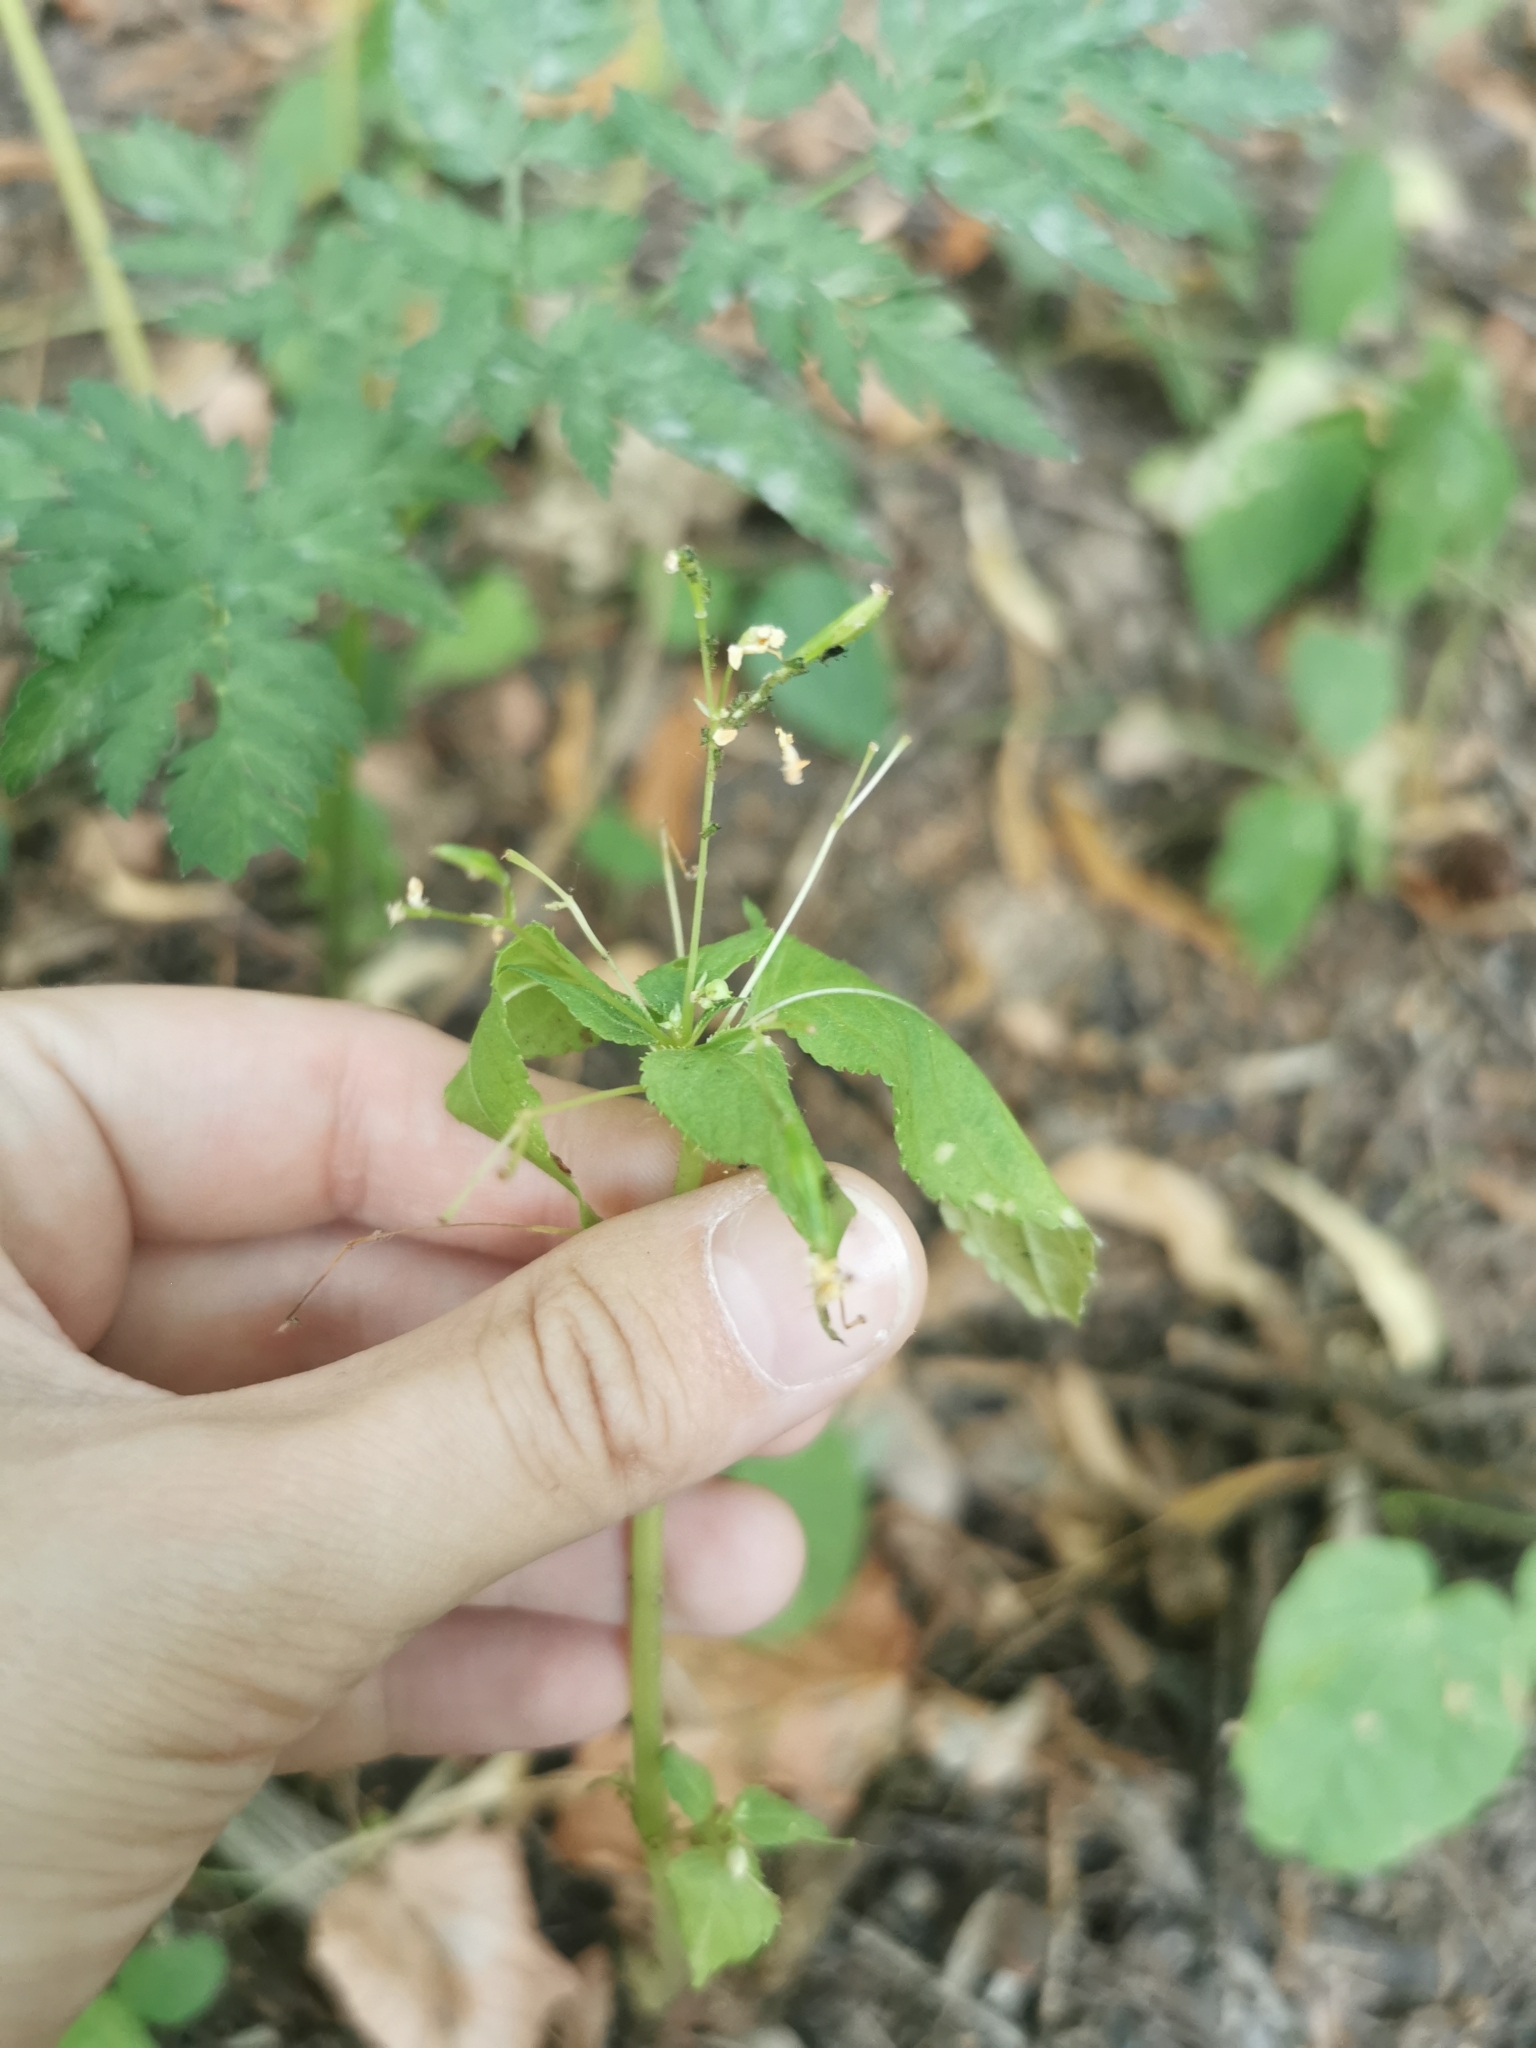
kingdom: Plantae
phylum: Tracheophyta
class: Magnoliopsida
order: Ericales
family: Balsaminaceae
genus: Impatiens
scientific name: Impatiens parviflora
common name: Small balsam
